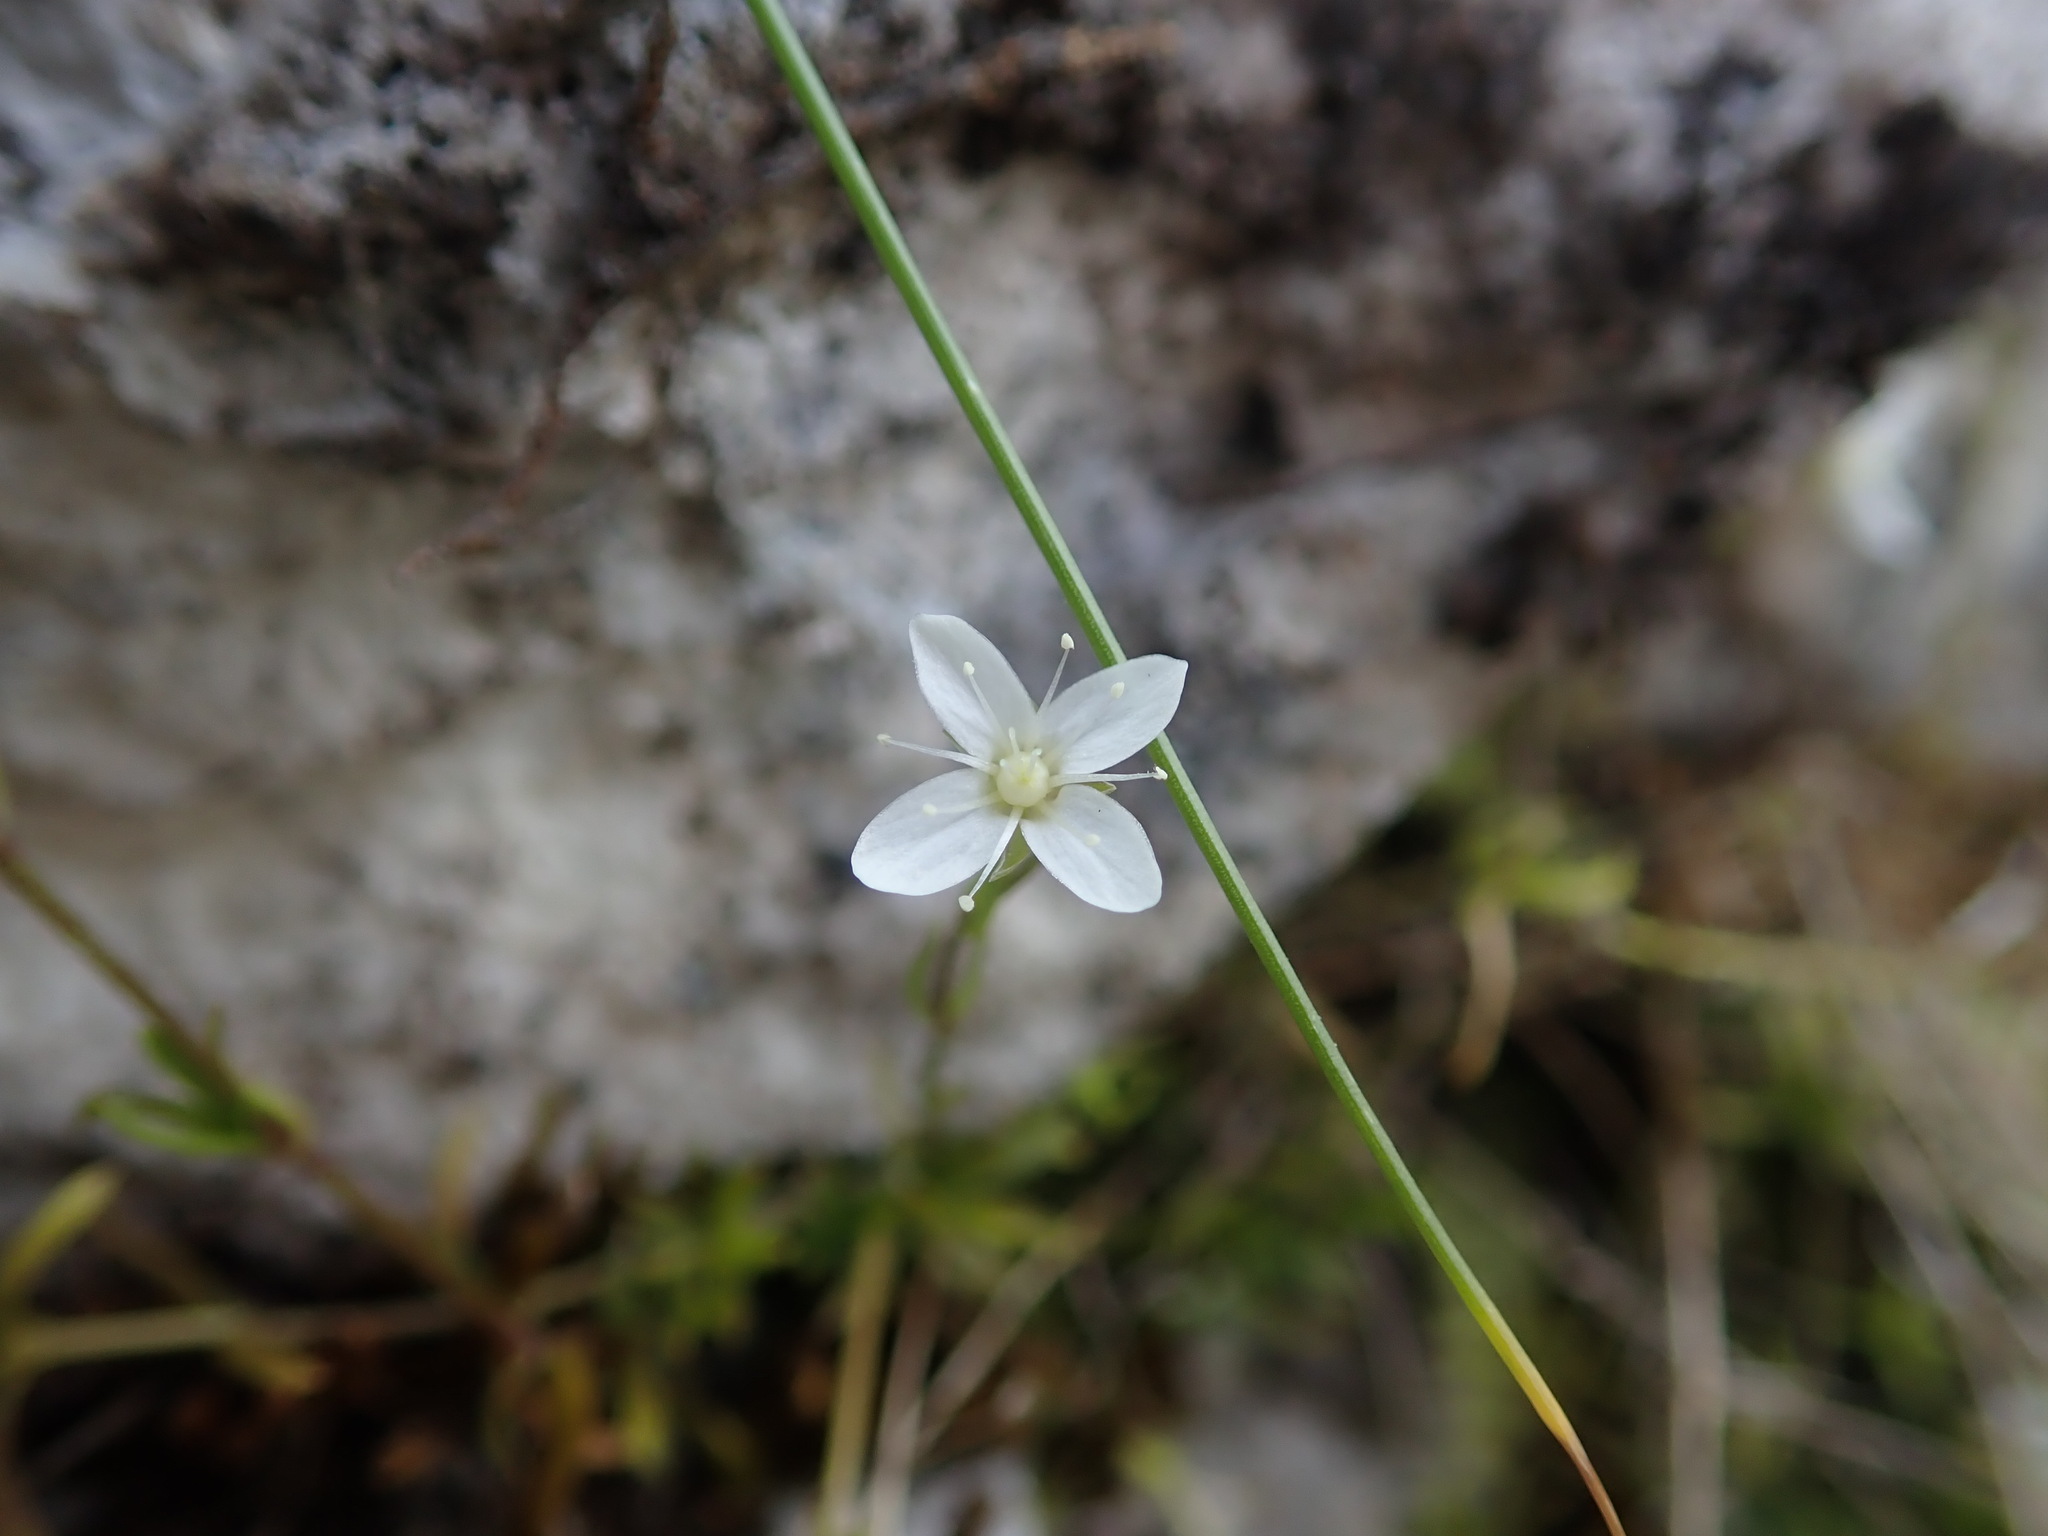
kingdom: Plantae
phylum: Tracheophyta
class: Magnoliopsida
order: Caryophyllales
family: Caryophyllaceae
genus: Moehringia
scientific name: Moehringia muscosa
